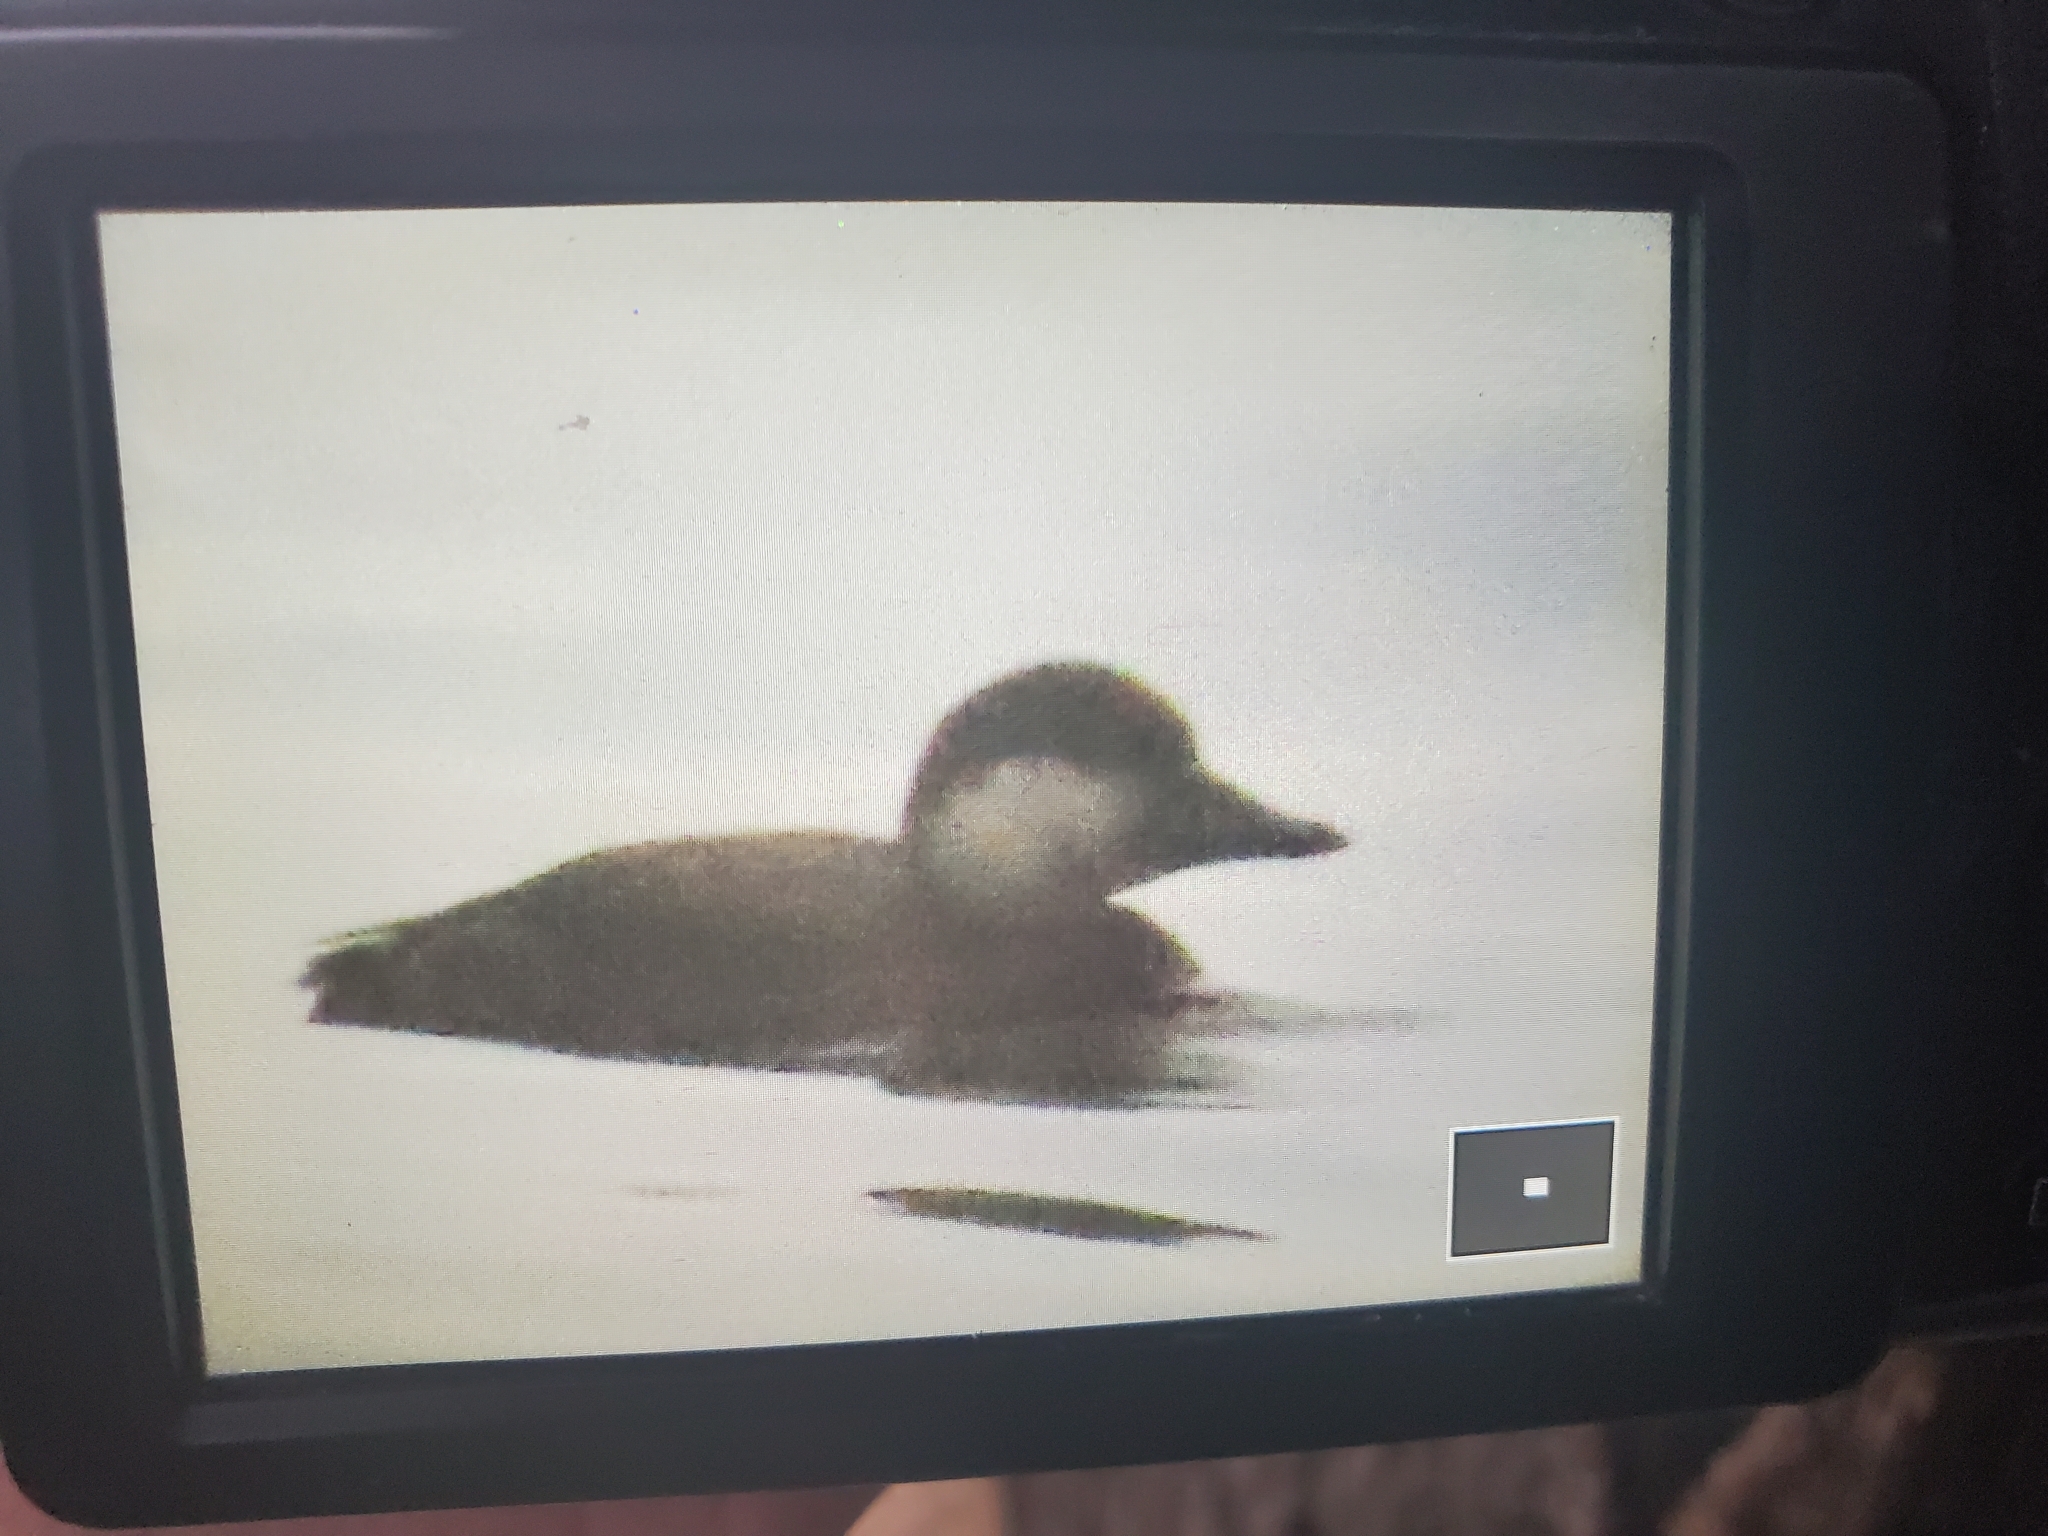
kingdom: Animalia
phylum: Chordata
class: Aves
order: Anseriformes
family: Anatidae
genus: Melanitta
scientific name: Melanitta americana
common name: Black scoter
